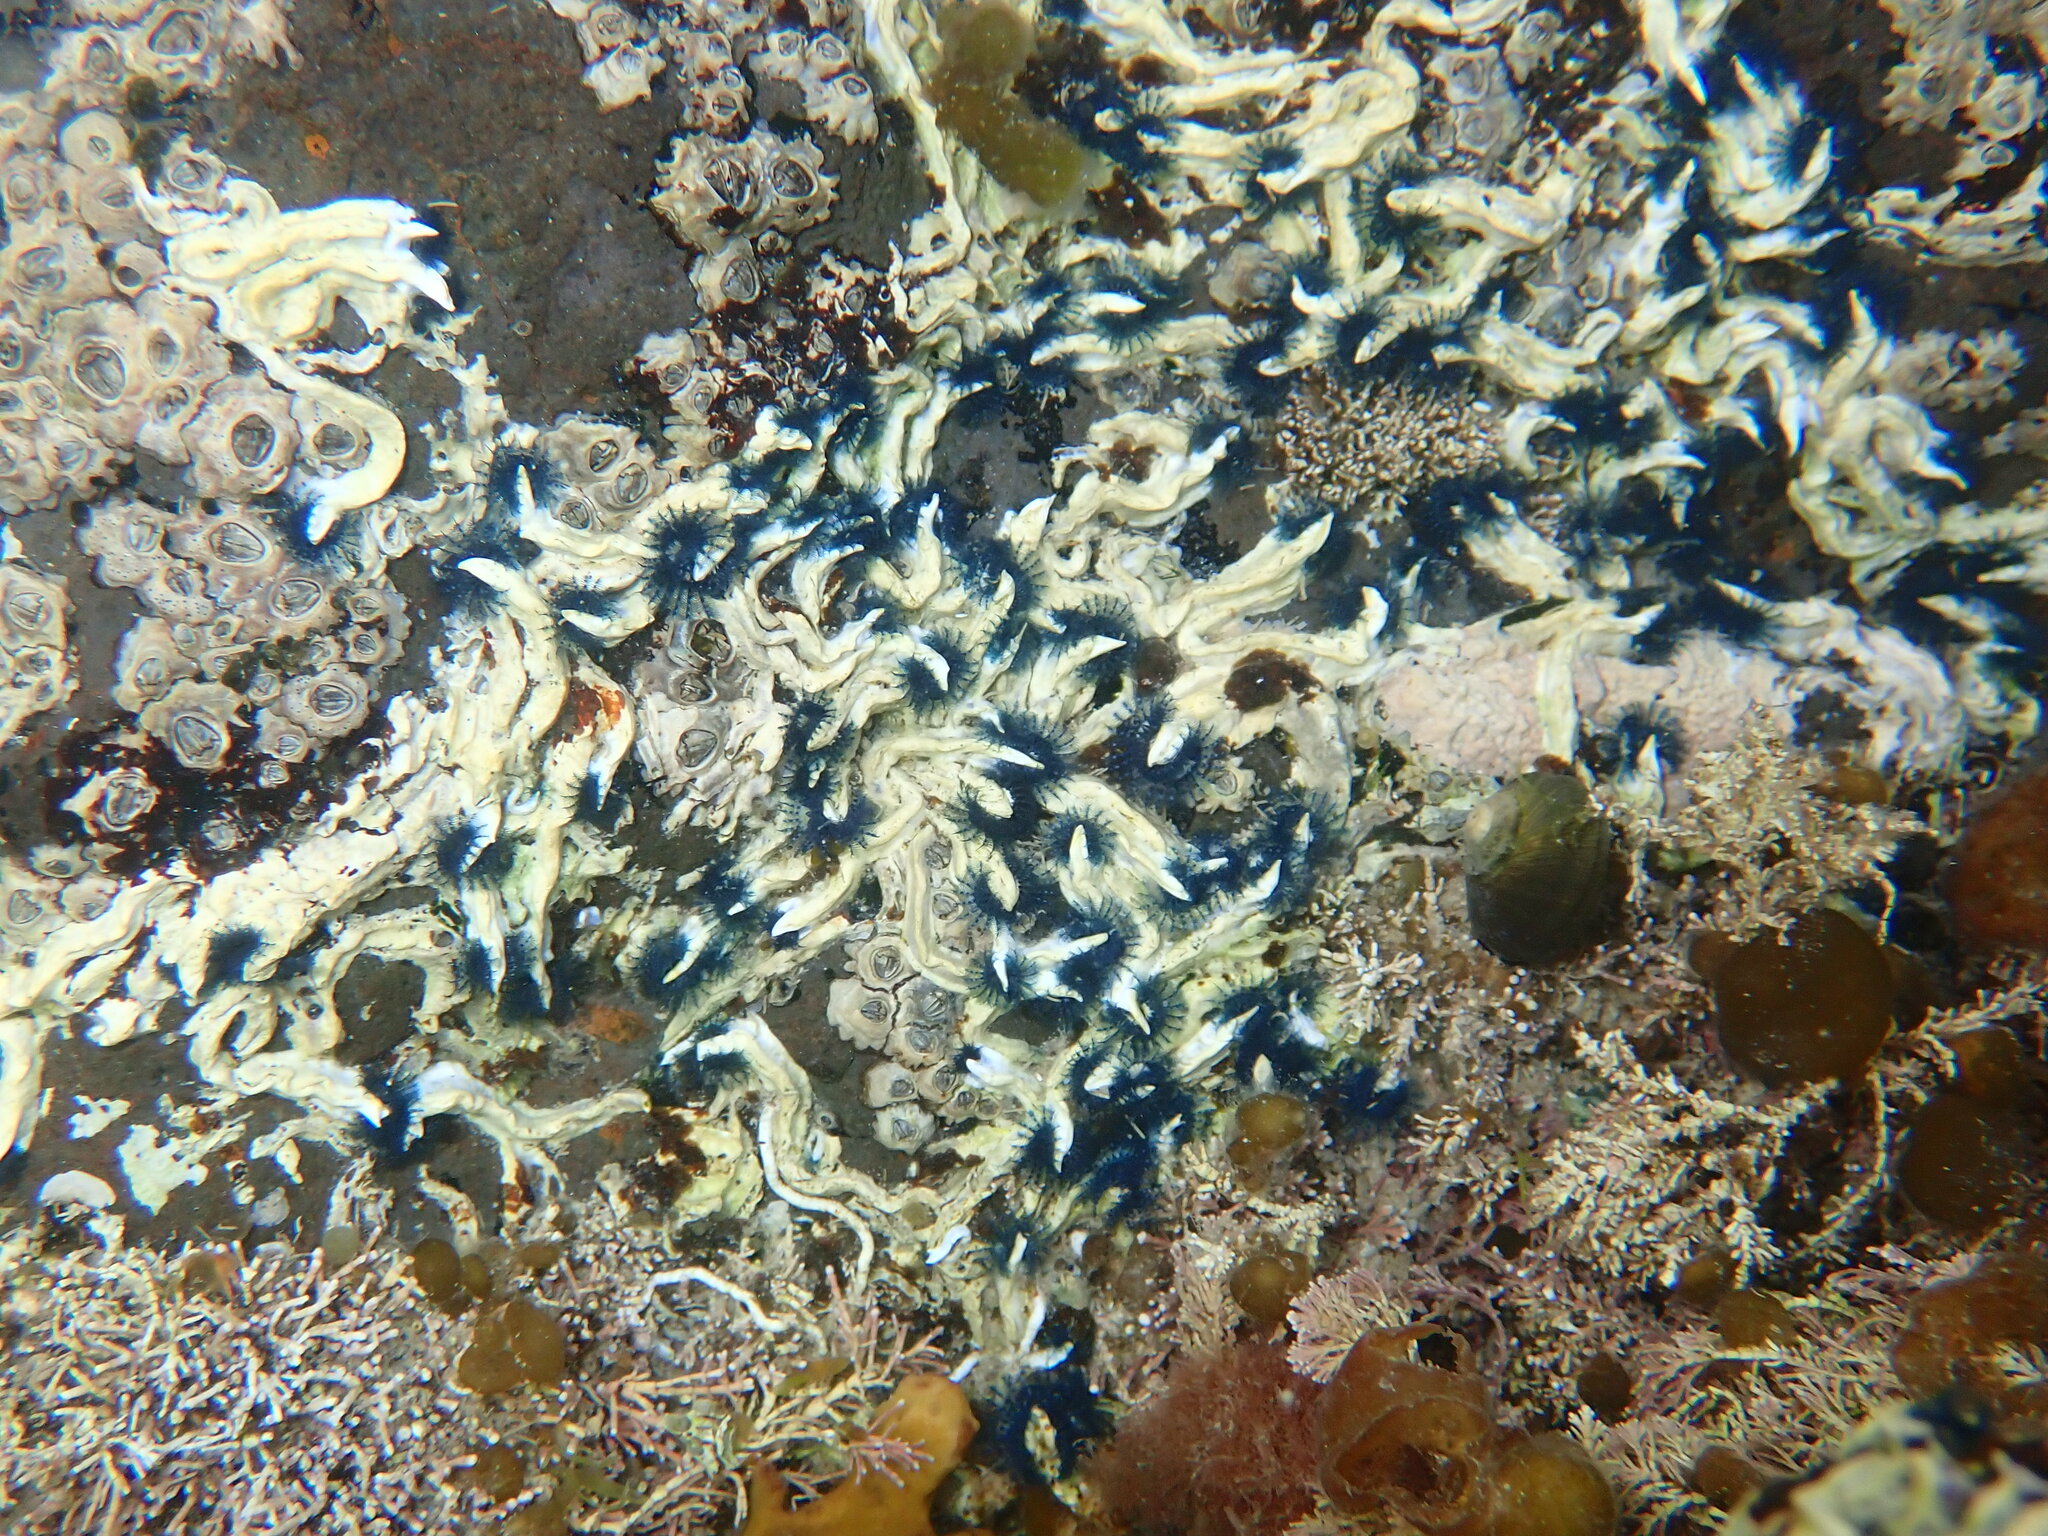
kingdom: Animalia
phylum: Annelida
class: Polychaeta
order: Sabellida
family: Serpulidae
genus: Spirobranchus
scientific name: Spirobranchus cariniferus
